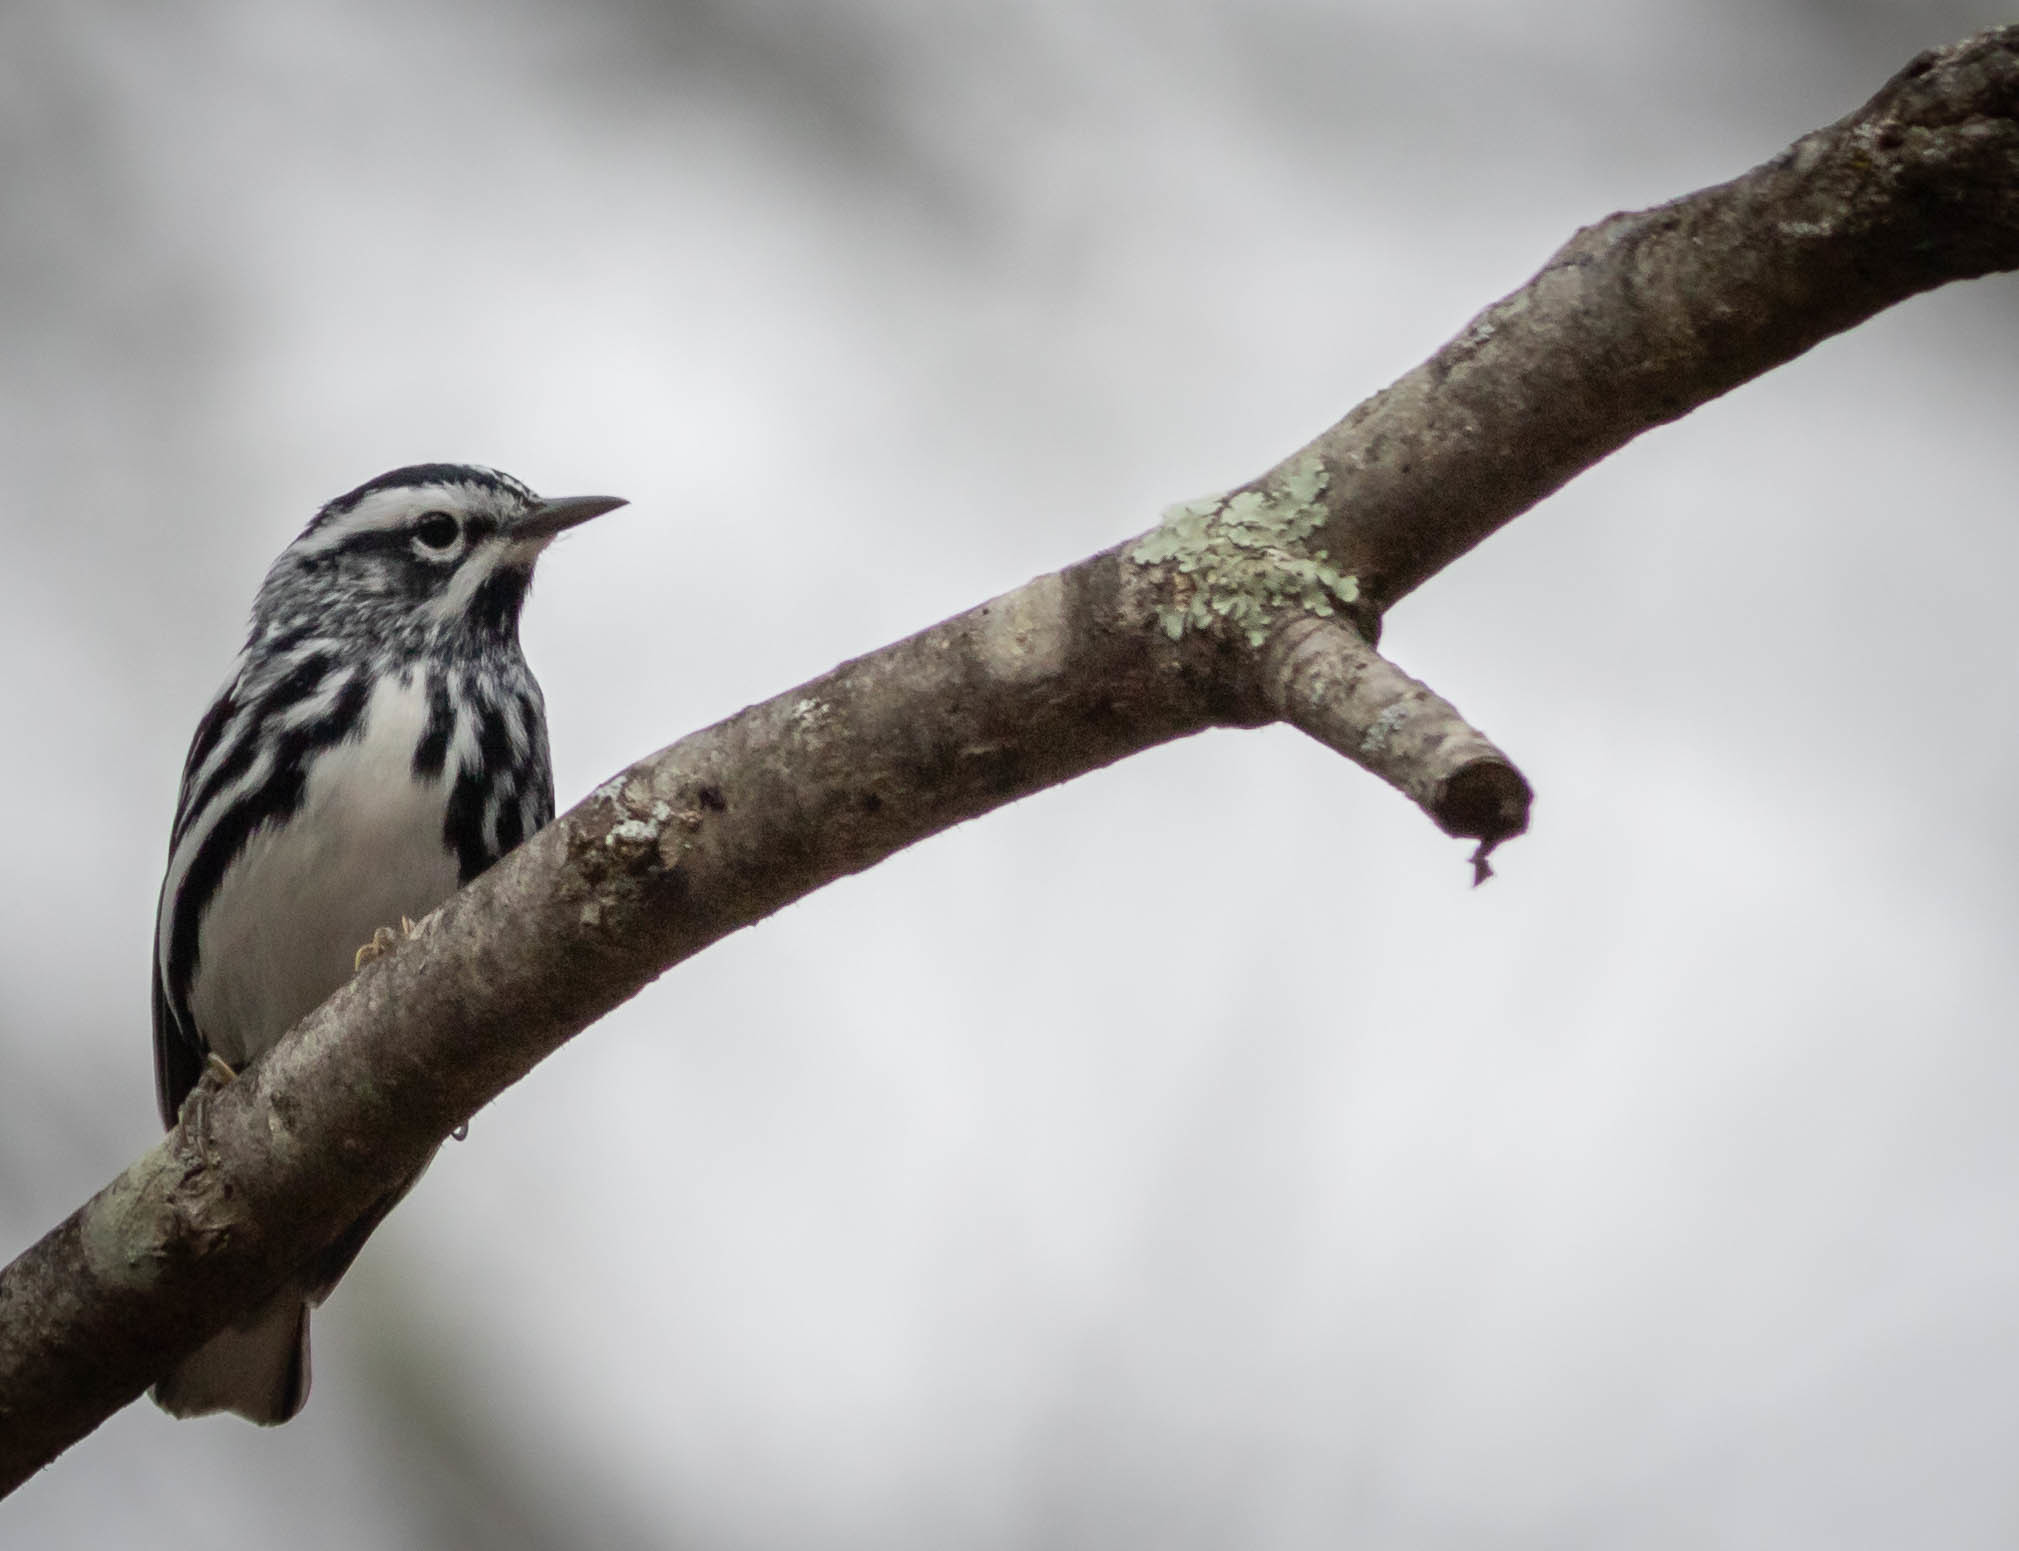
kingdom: Animalia
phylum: Chordata
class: Aves
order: Passeriformes
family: Parulidae
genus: Mniotilta
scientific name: Mniotilta varia
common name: Black-and-white warbler
